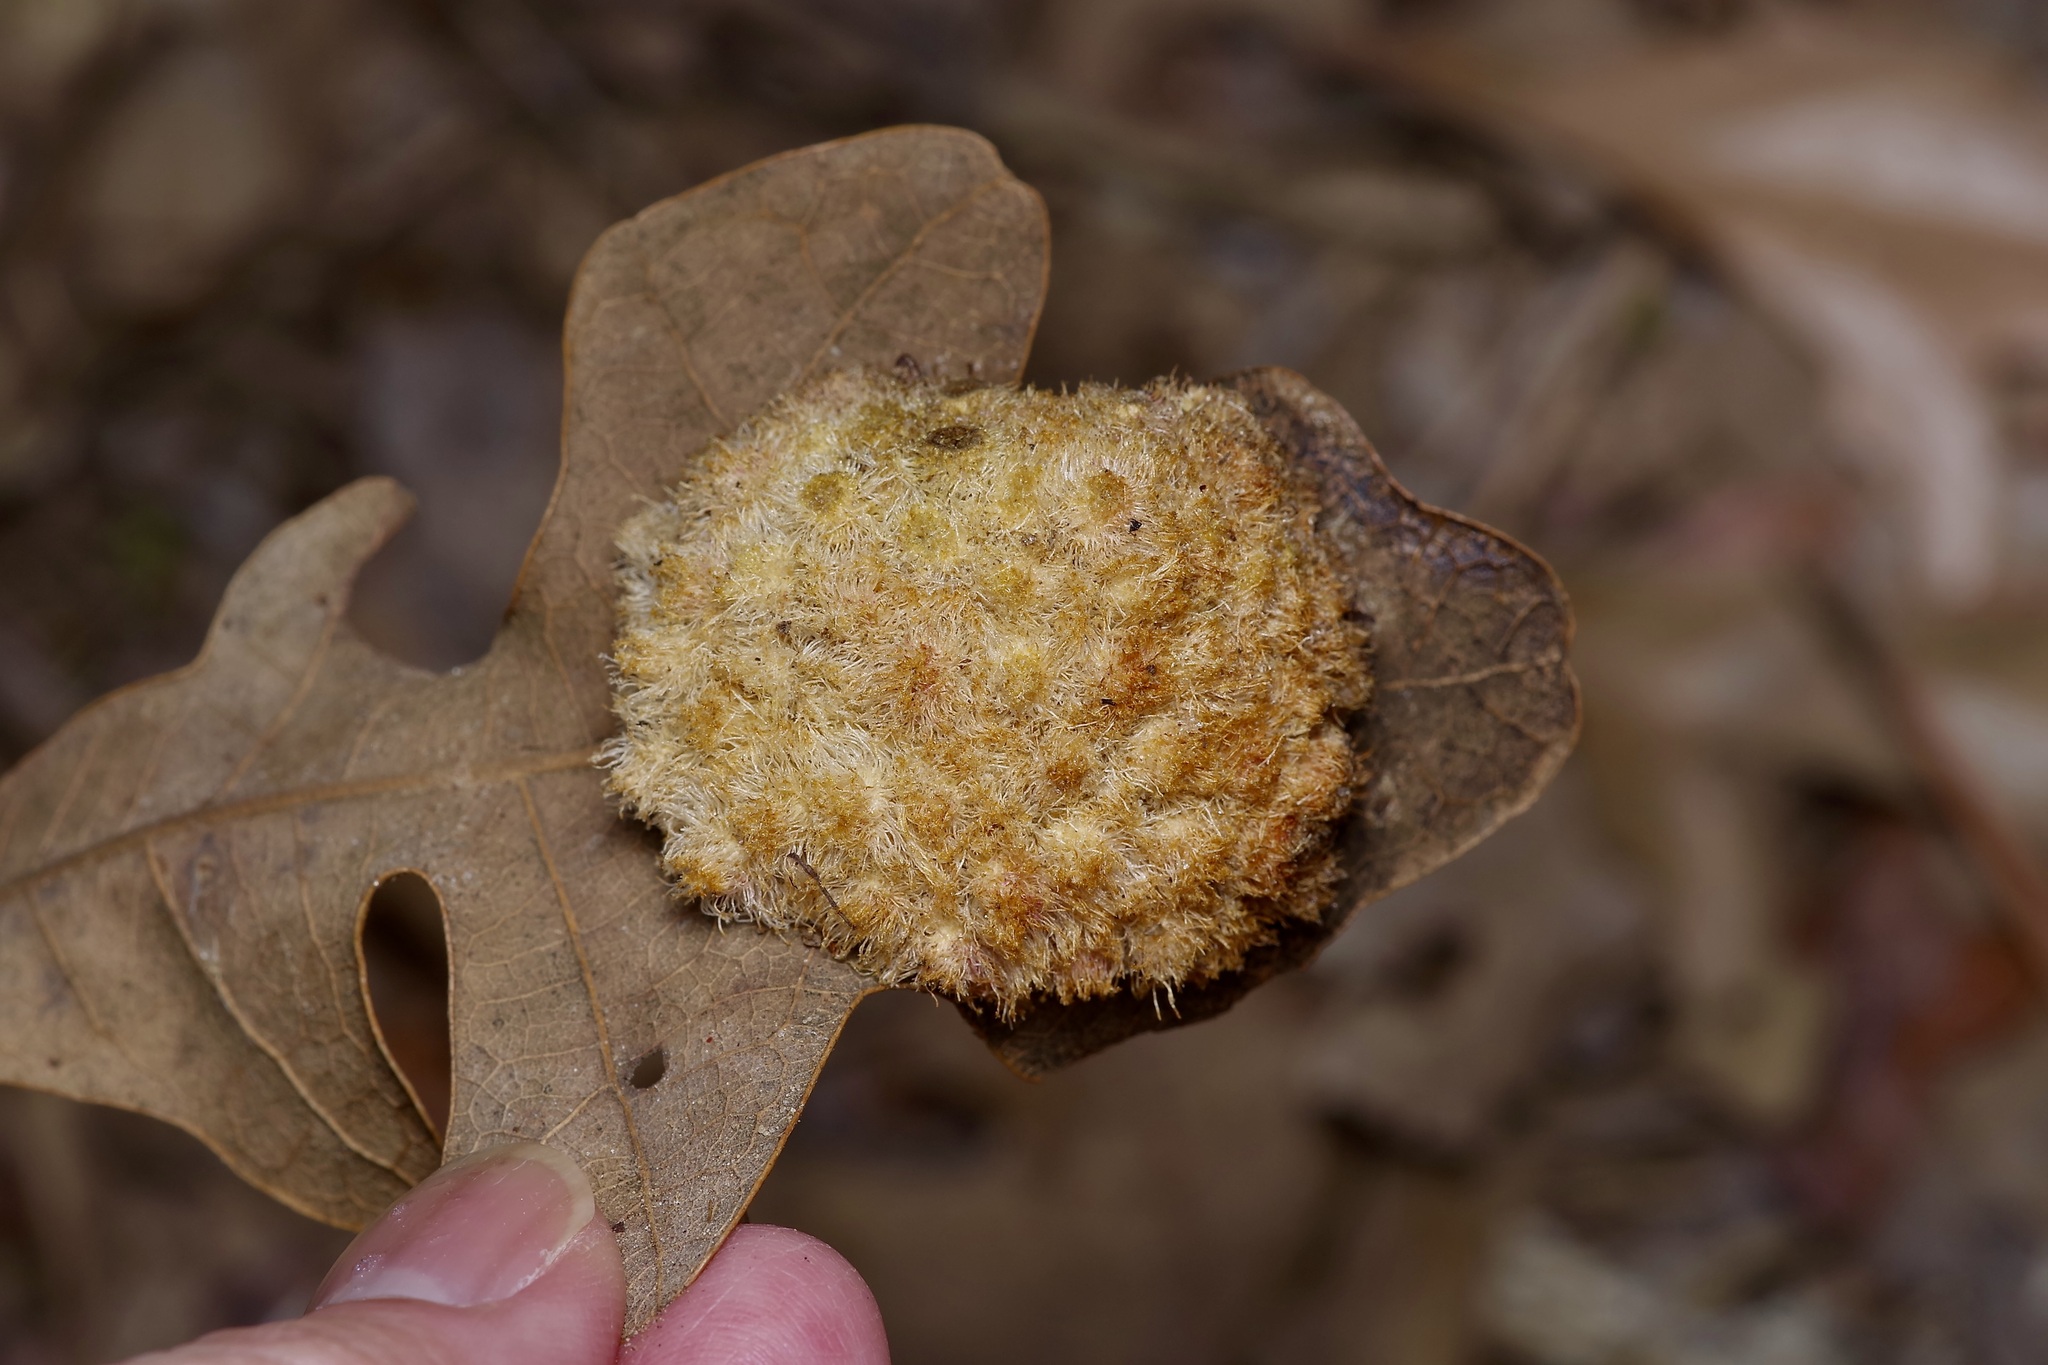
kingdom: Animalia
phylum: Arthropoda
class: Insecta
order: Hymenoptera
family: Cynipidae
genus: Andricus
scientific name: Andricus
